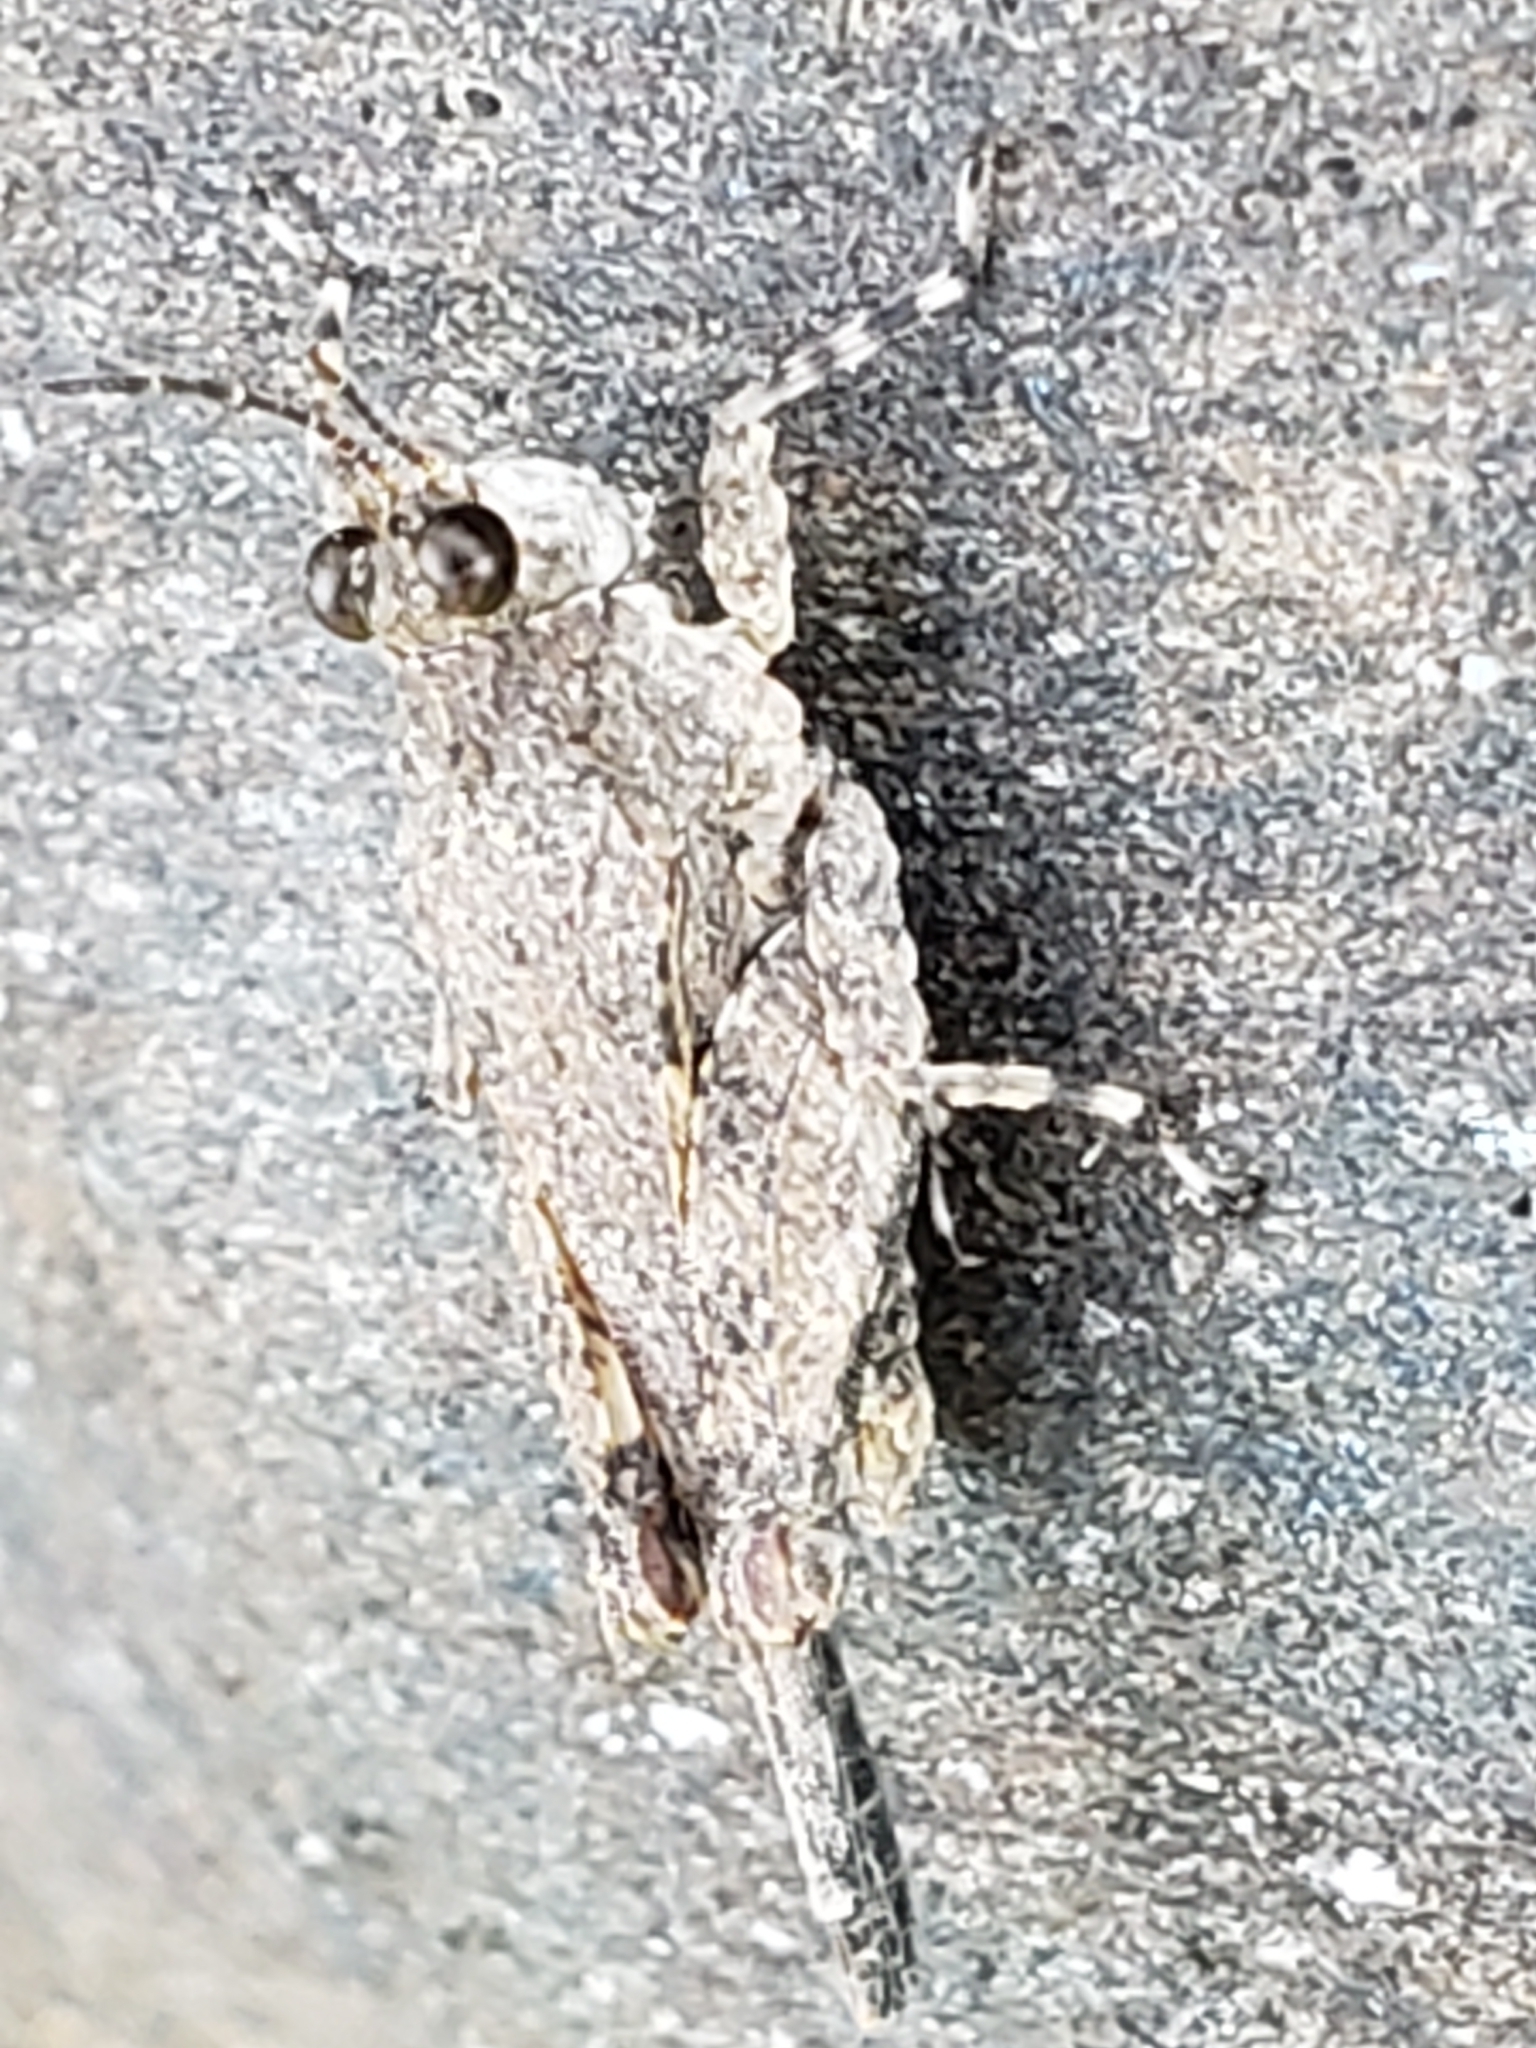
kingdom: Animalia
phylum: Arthropoda
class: Insecta
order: Orthoptera
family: Tetrigidae
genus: Paratettix
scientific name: Paratettix cucullatus
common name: Hooded grouse locust
